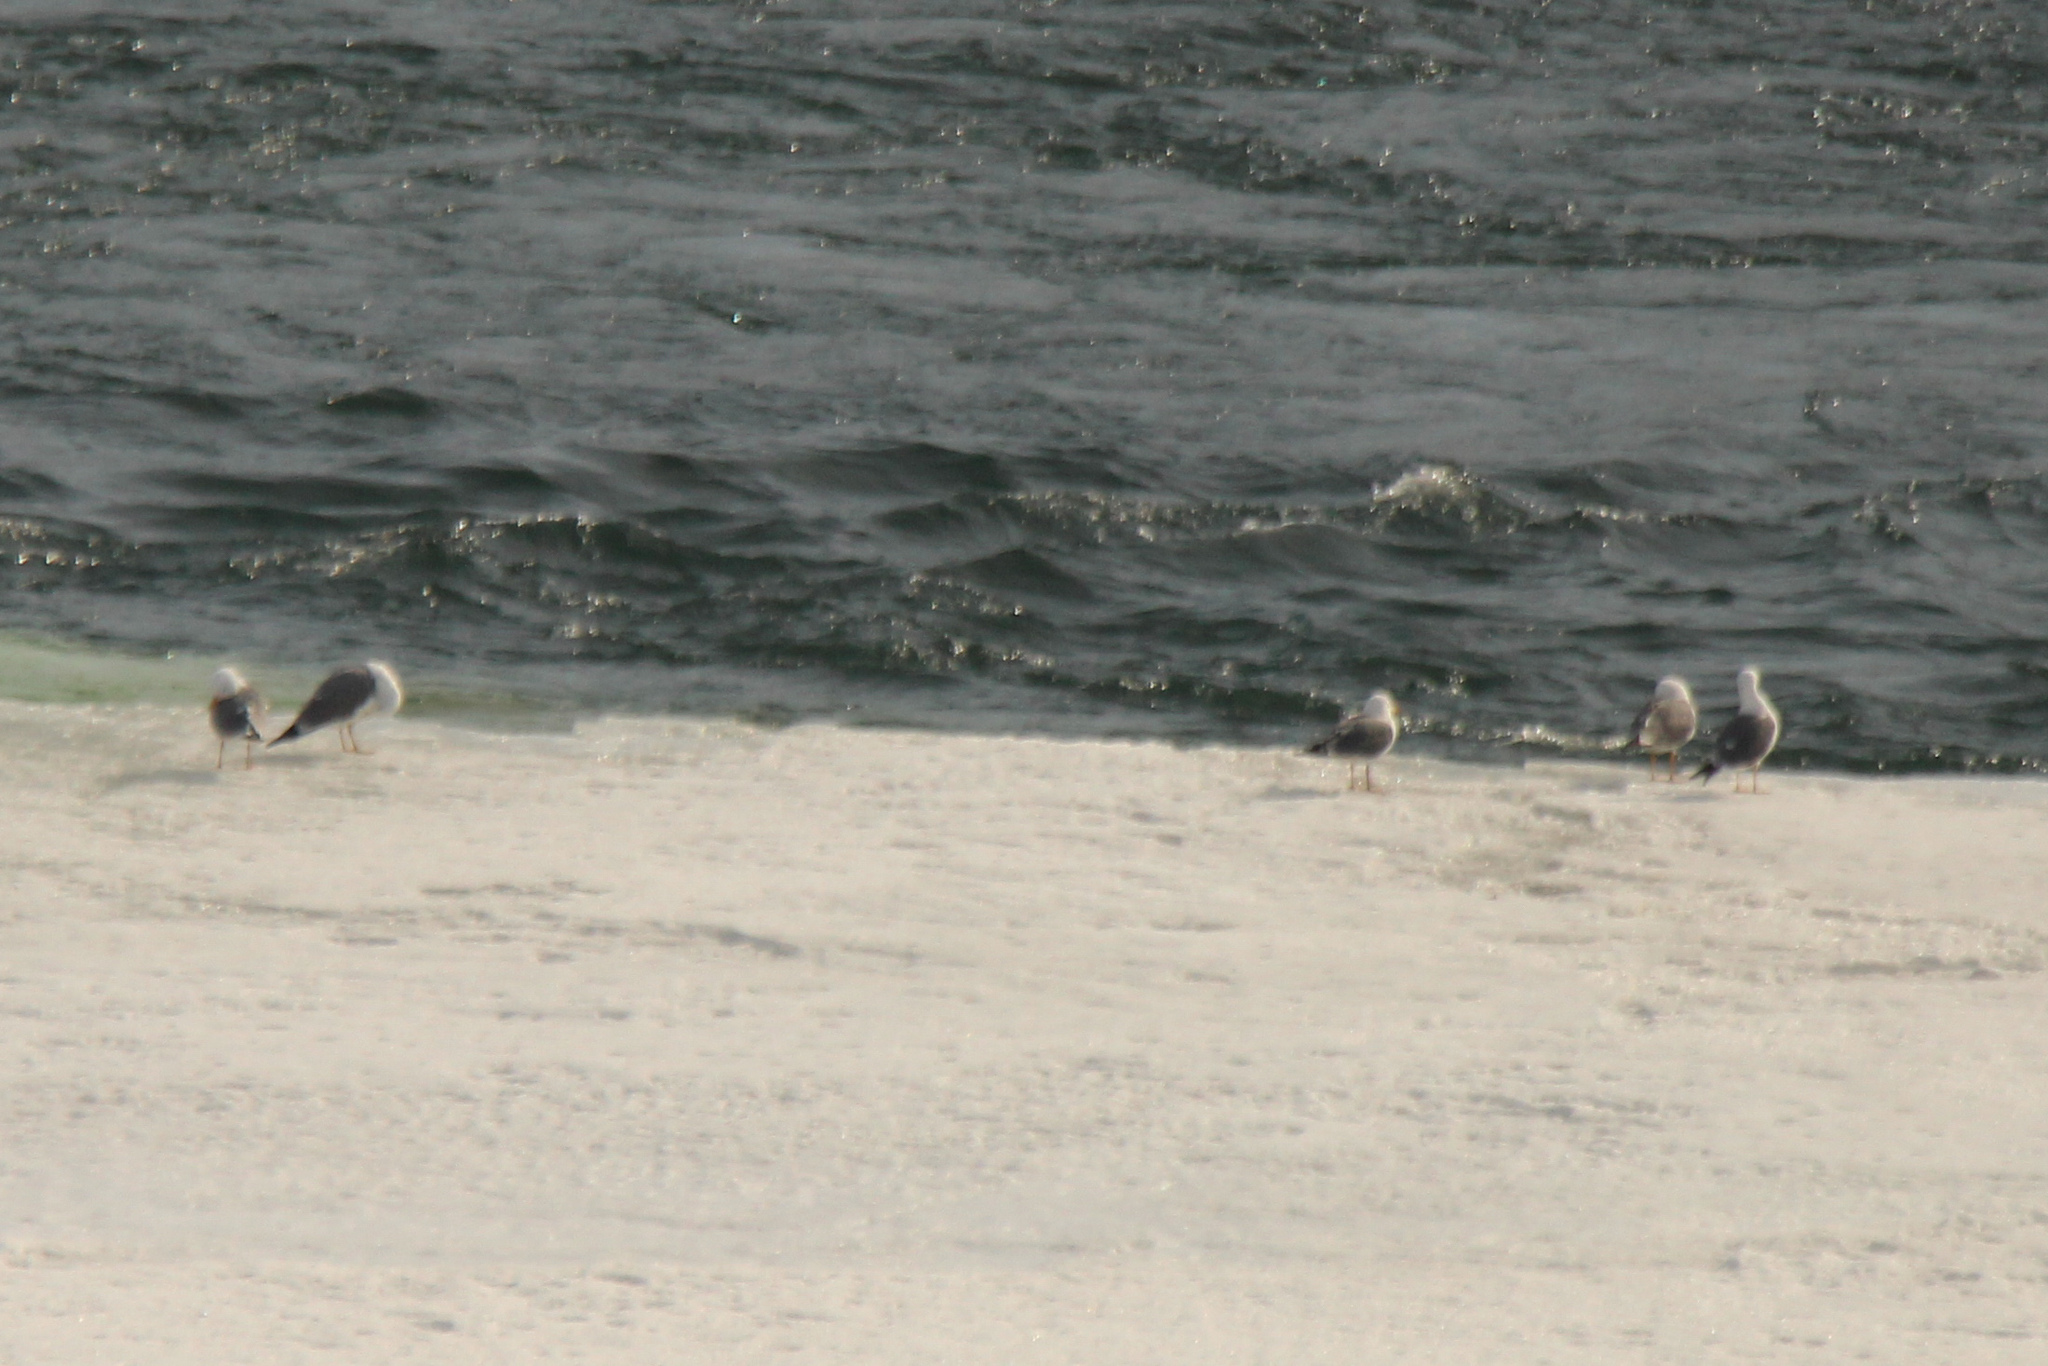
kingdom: Animalia
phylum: Chordata
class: Aves
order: Charadriiformes
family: Laridae
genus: Larus
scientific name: Larus fuscus
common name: Lesser black-backed gull
